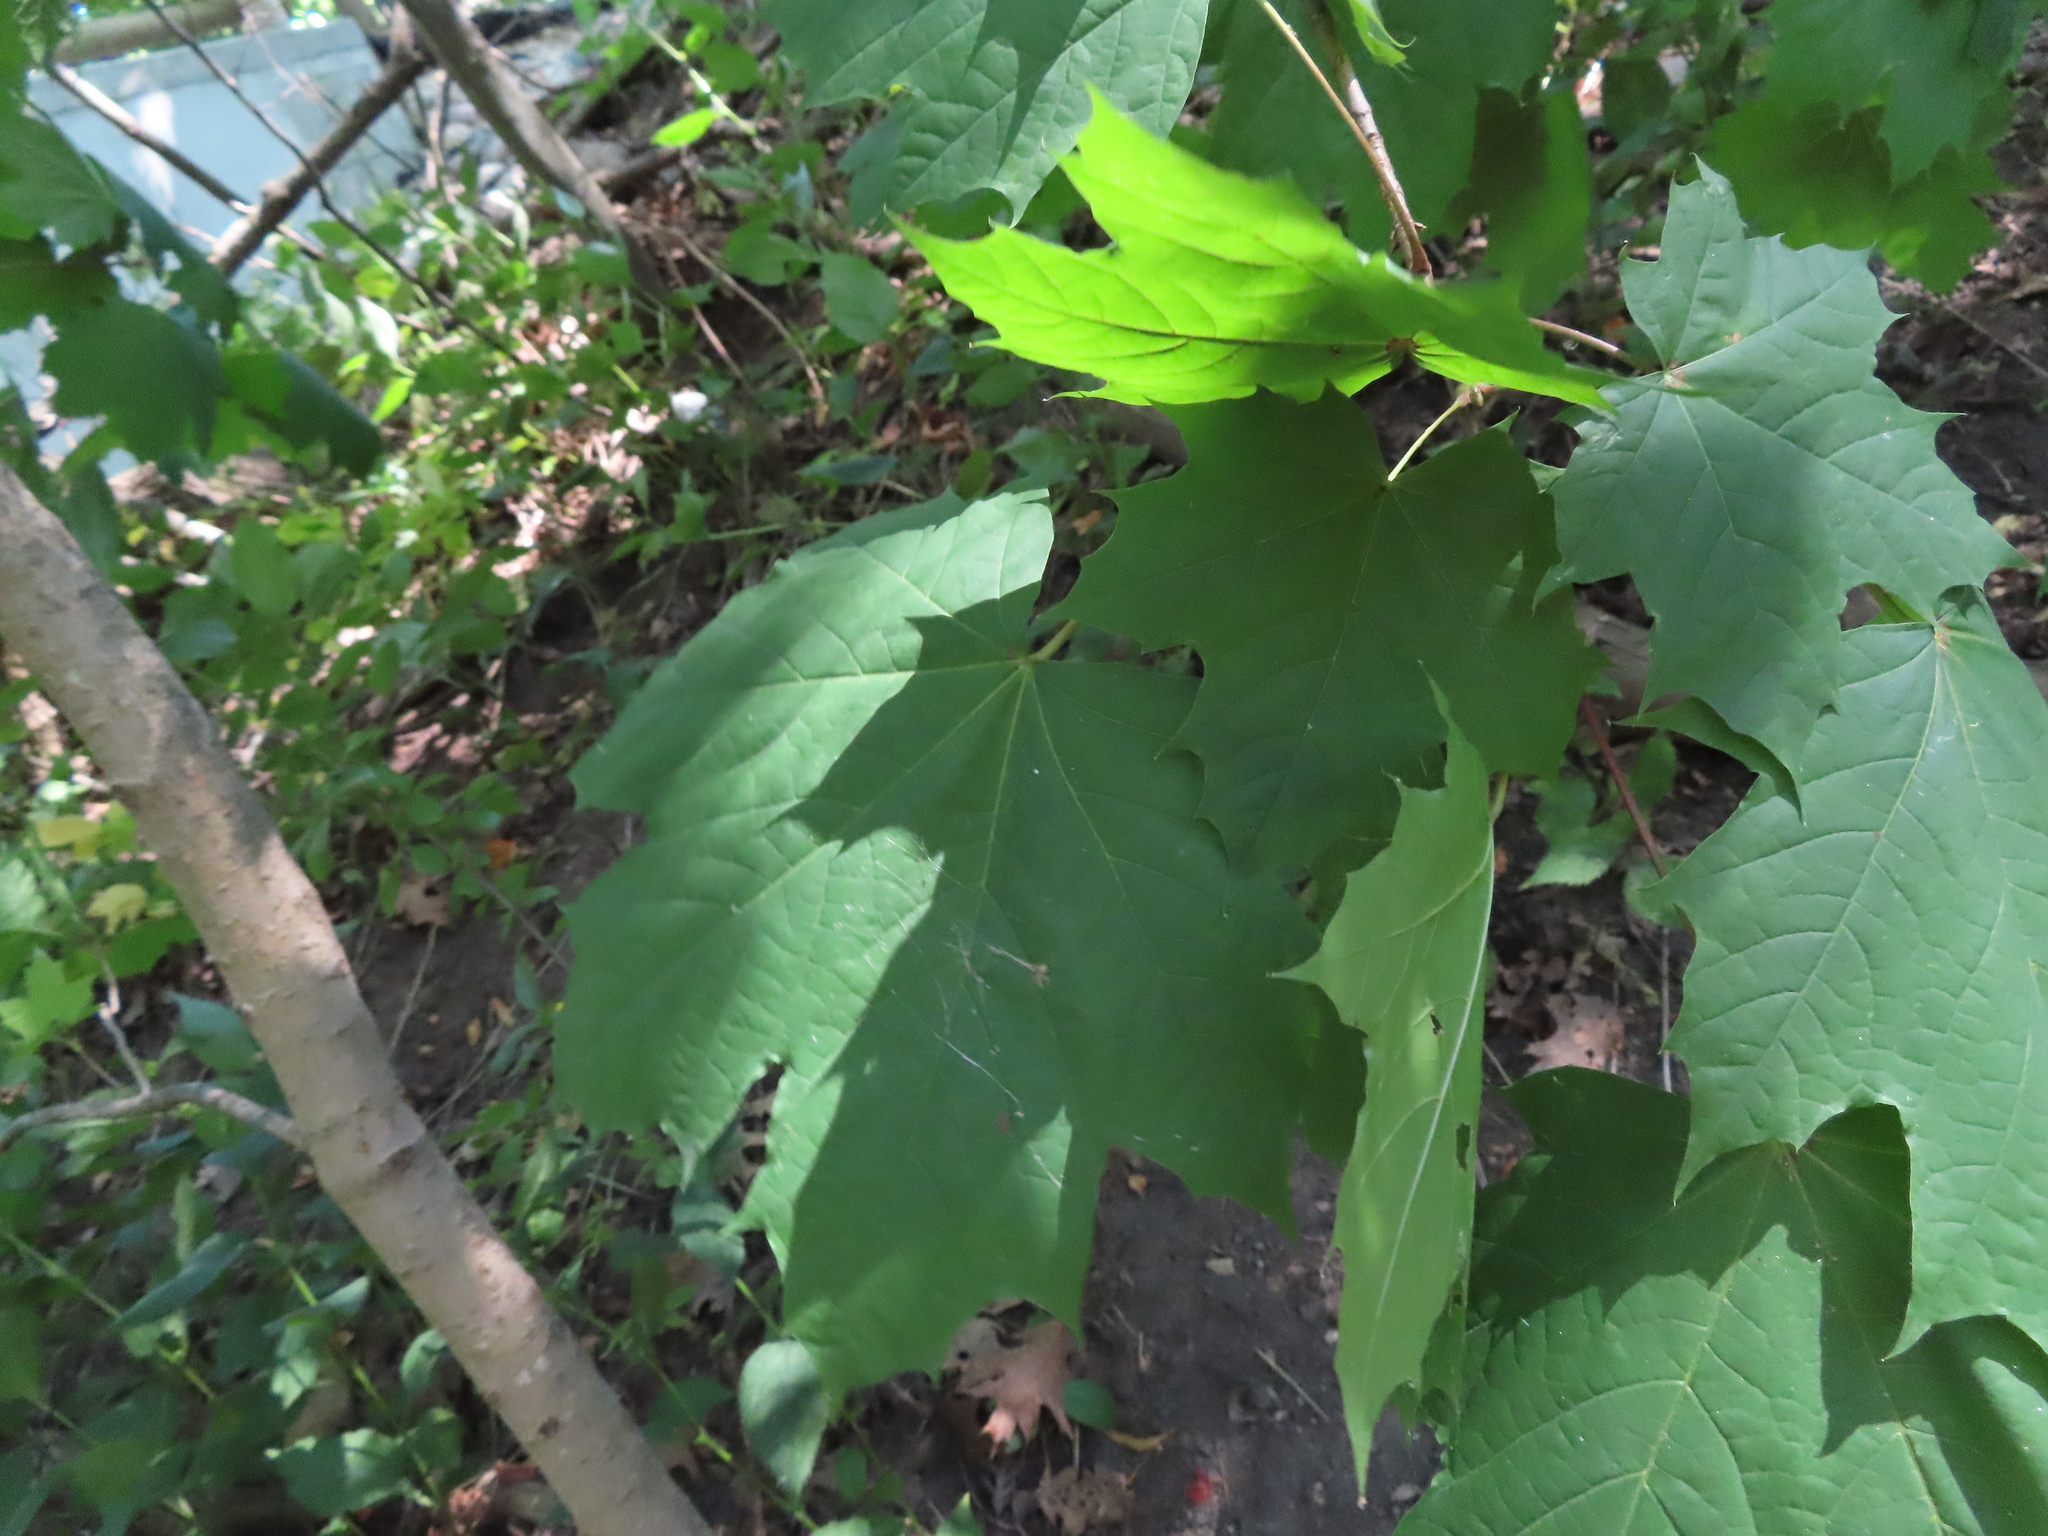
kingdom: Plantae
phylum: Tracheophyta
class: Magnoliopsida
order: Sapindales
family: Sapindaceae
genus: Acer
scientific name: Acer platanoides
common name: Norway maple
